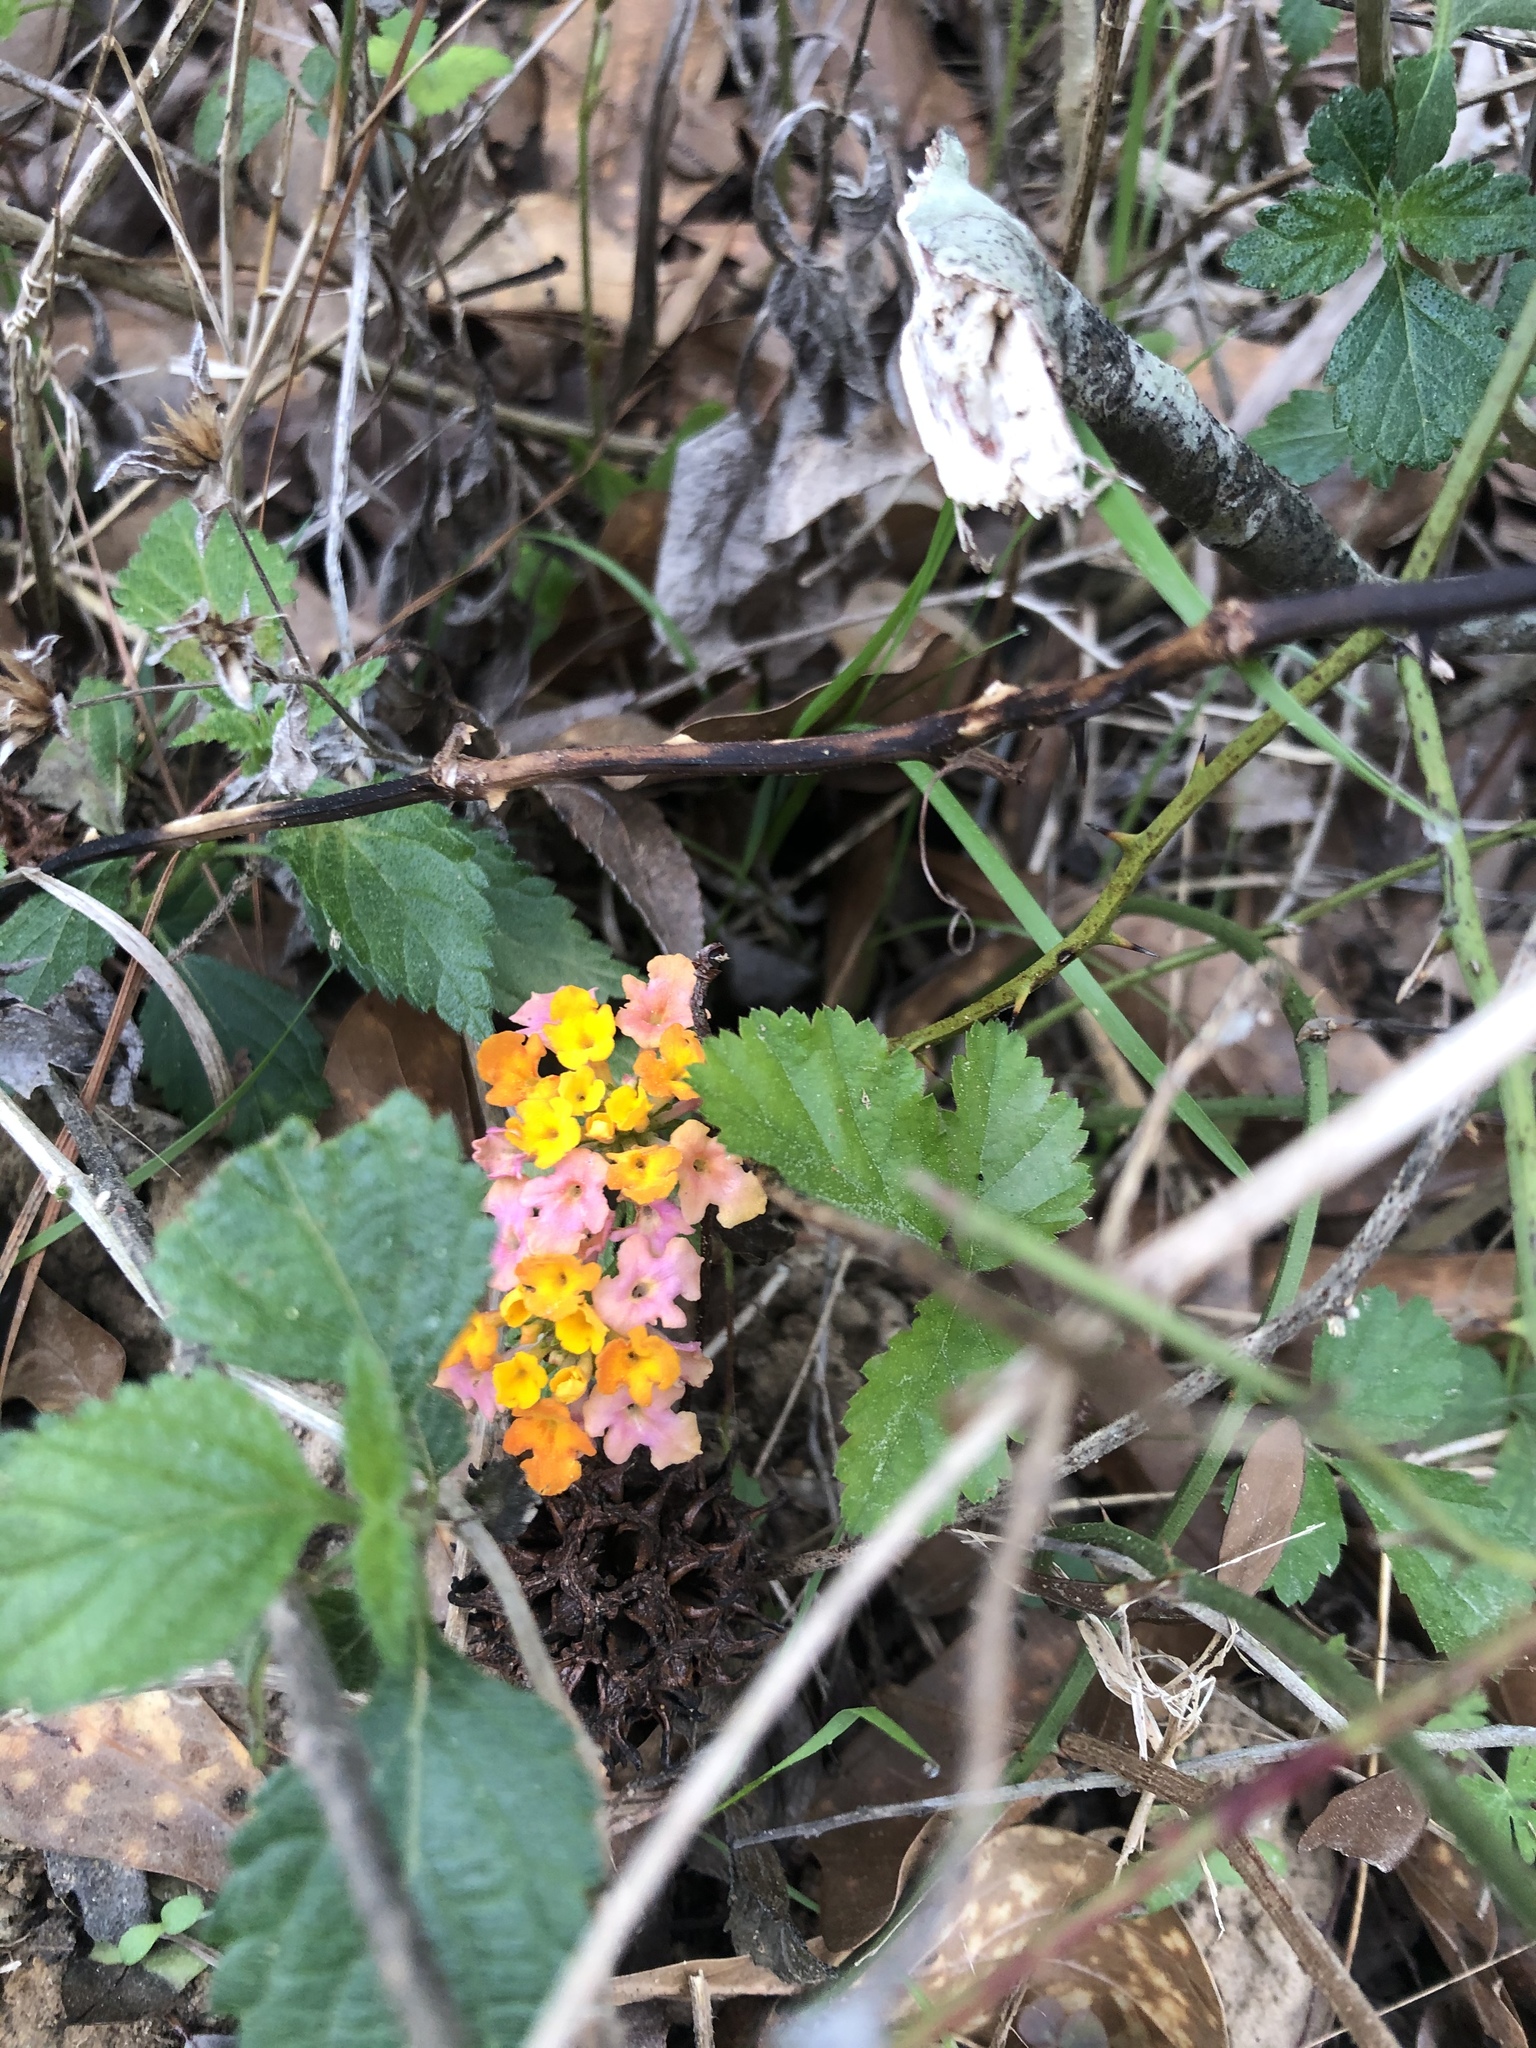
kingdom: Plantae
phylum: Tracheophyta
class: Magnoliopsida
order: Lamiales
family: Verbenaceae
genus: Lantana
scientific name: Lantana camara
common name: Lantana
